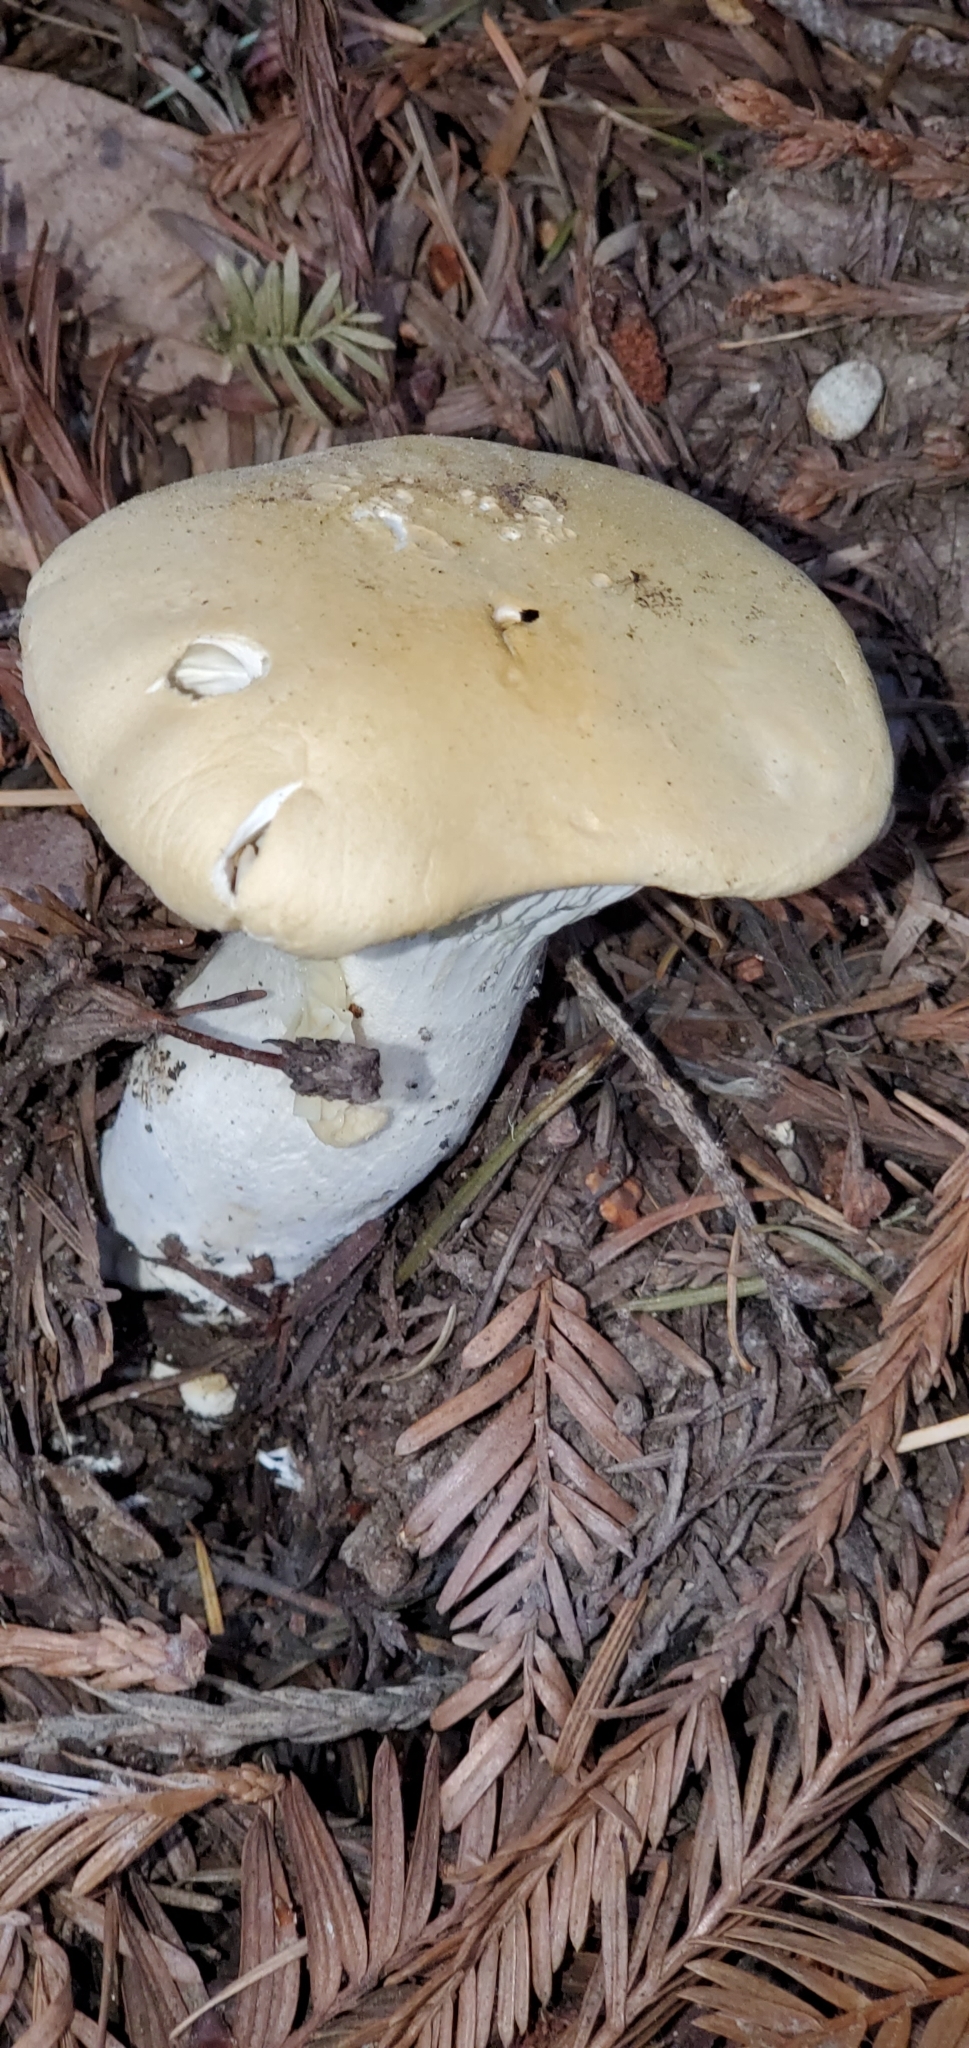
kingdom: Fungi
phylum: Basidiomycota
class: Agaricomycetes
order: Agaricales
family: Tricholomataceae
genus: Leucopaxillus
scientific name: Leucopaxillus albissimus
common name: Large white leucopax
